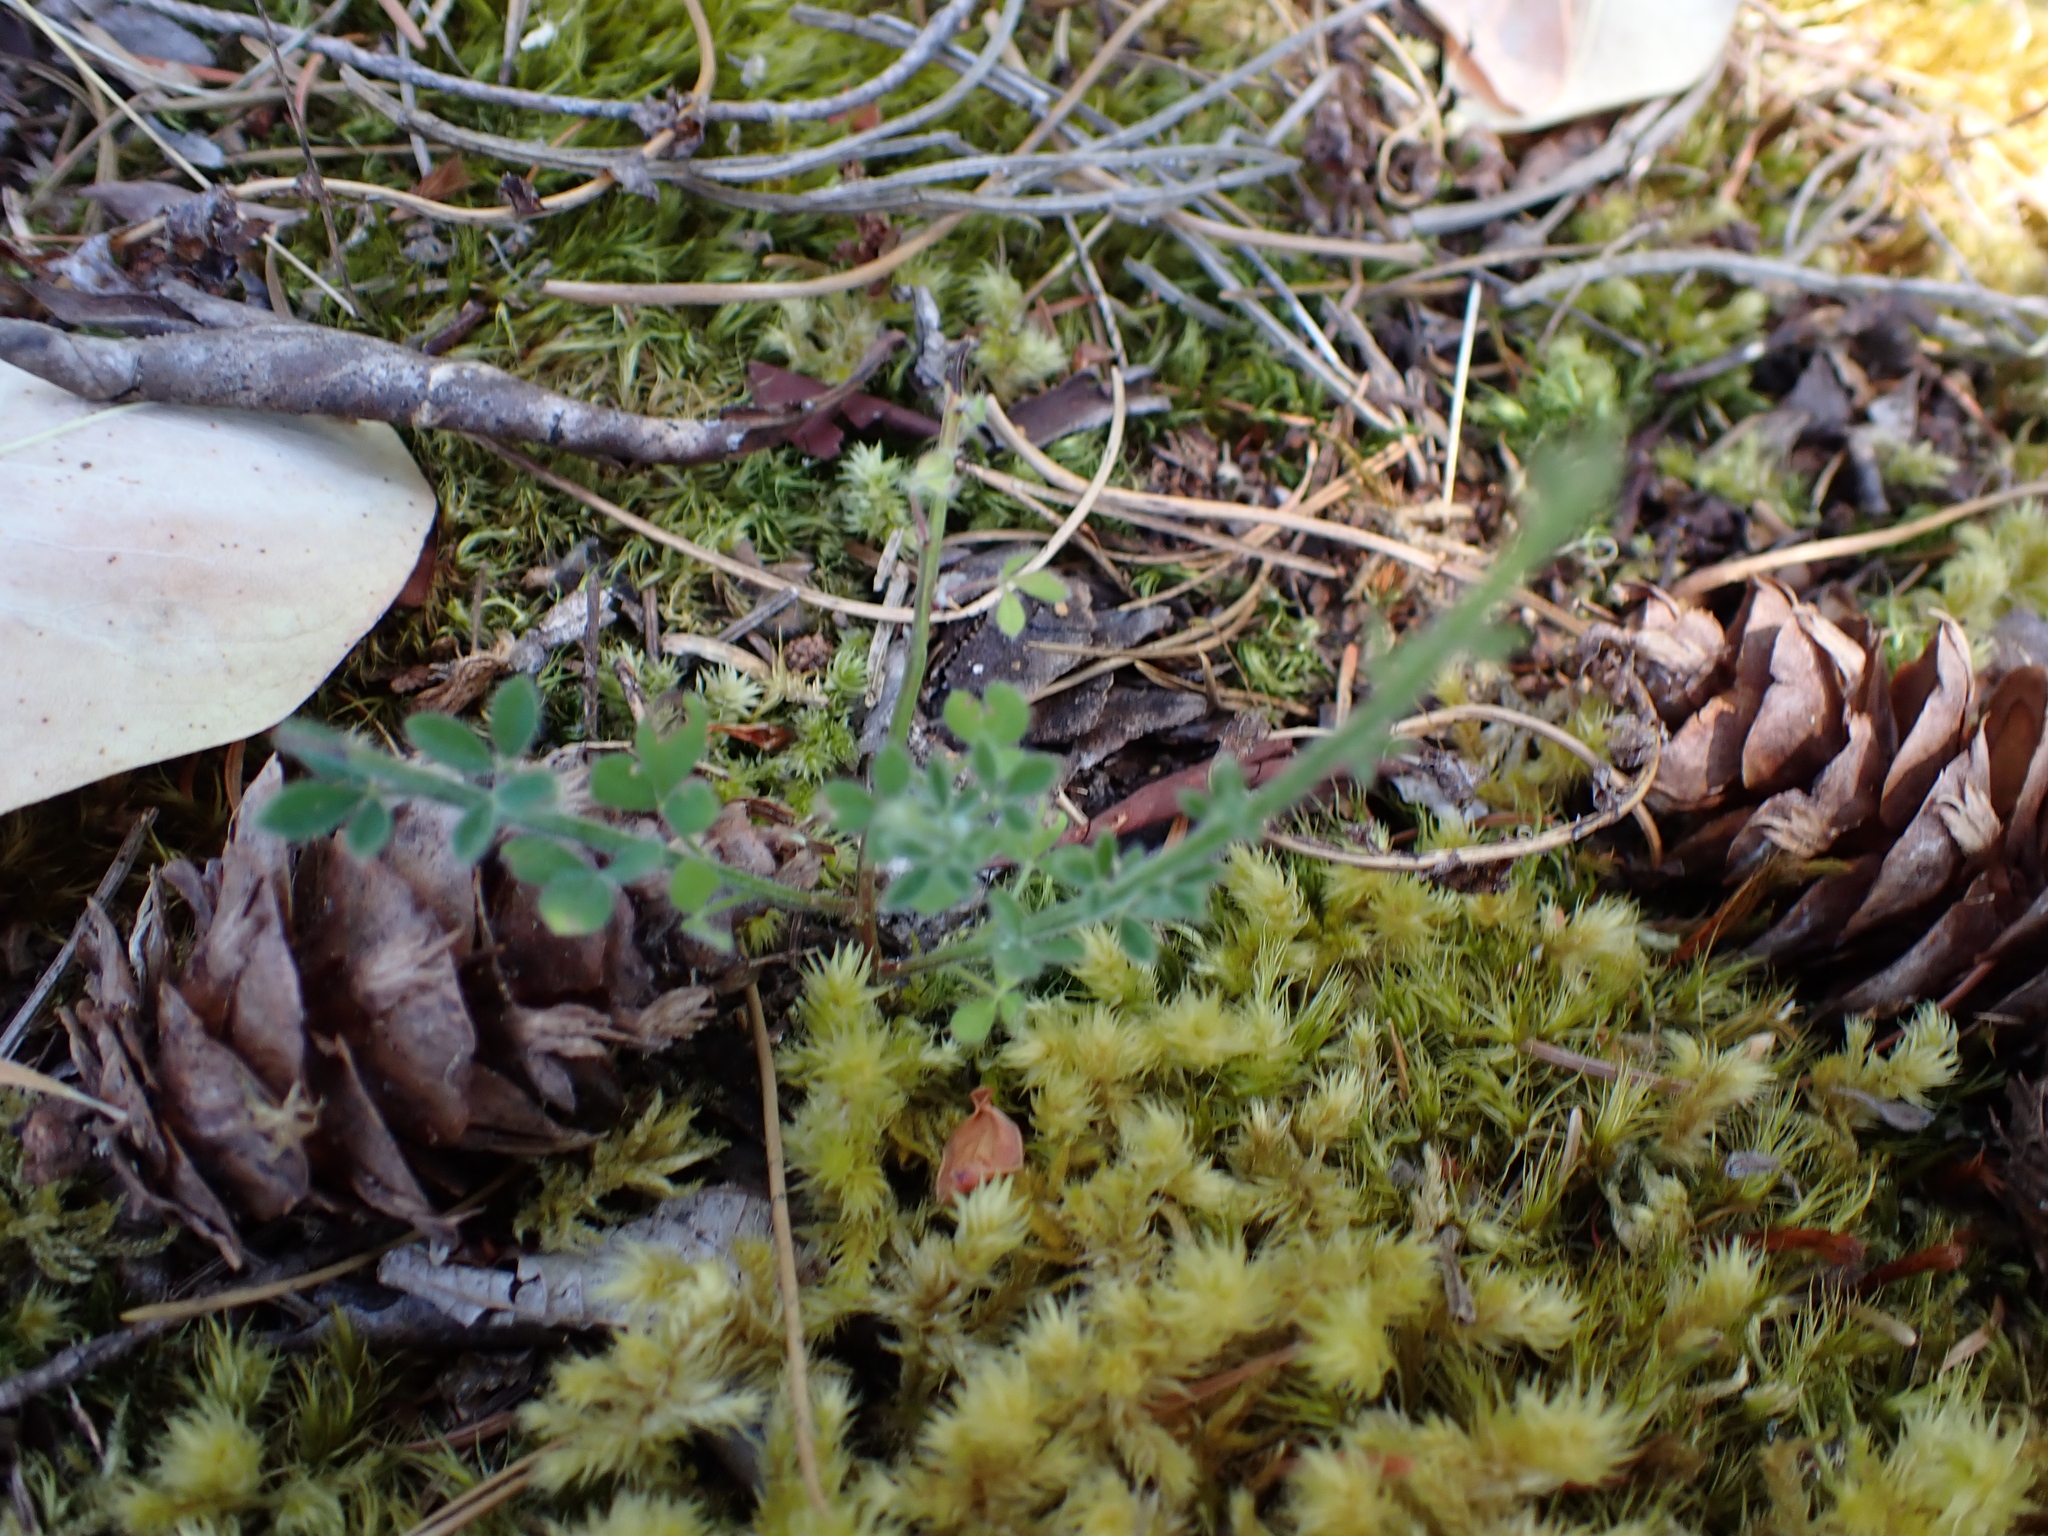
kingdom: Plantae
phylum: Tracheophyta
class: Magnoliopsida
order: Fabales
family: Fabaceae
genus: Cytisus
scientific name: Cytisus scoparius
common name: Scotch broom
